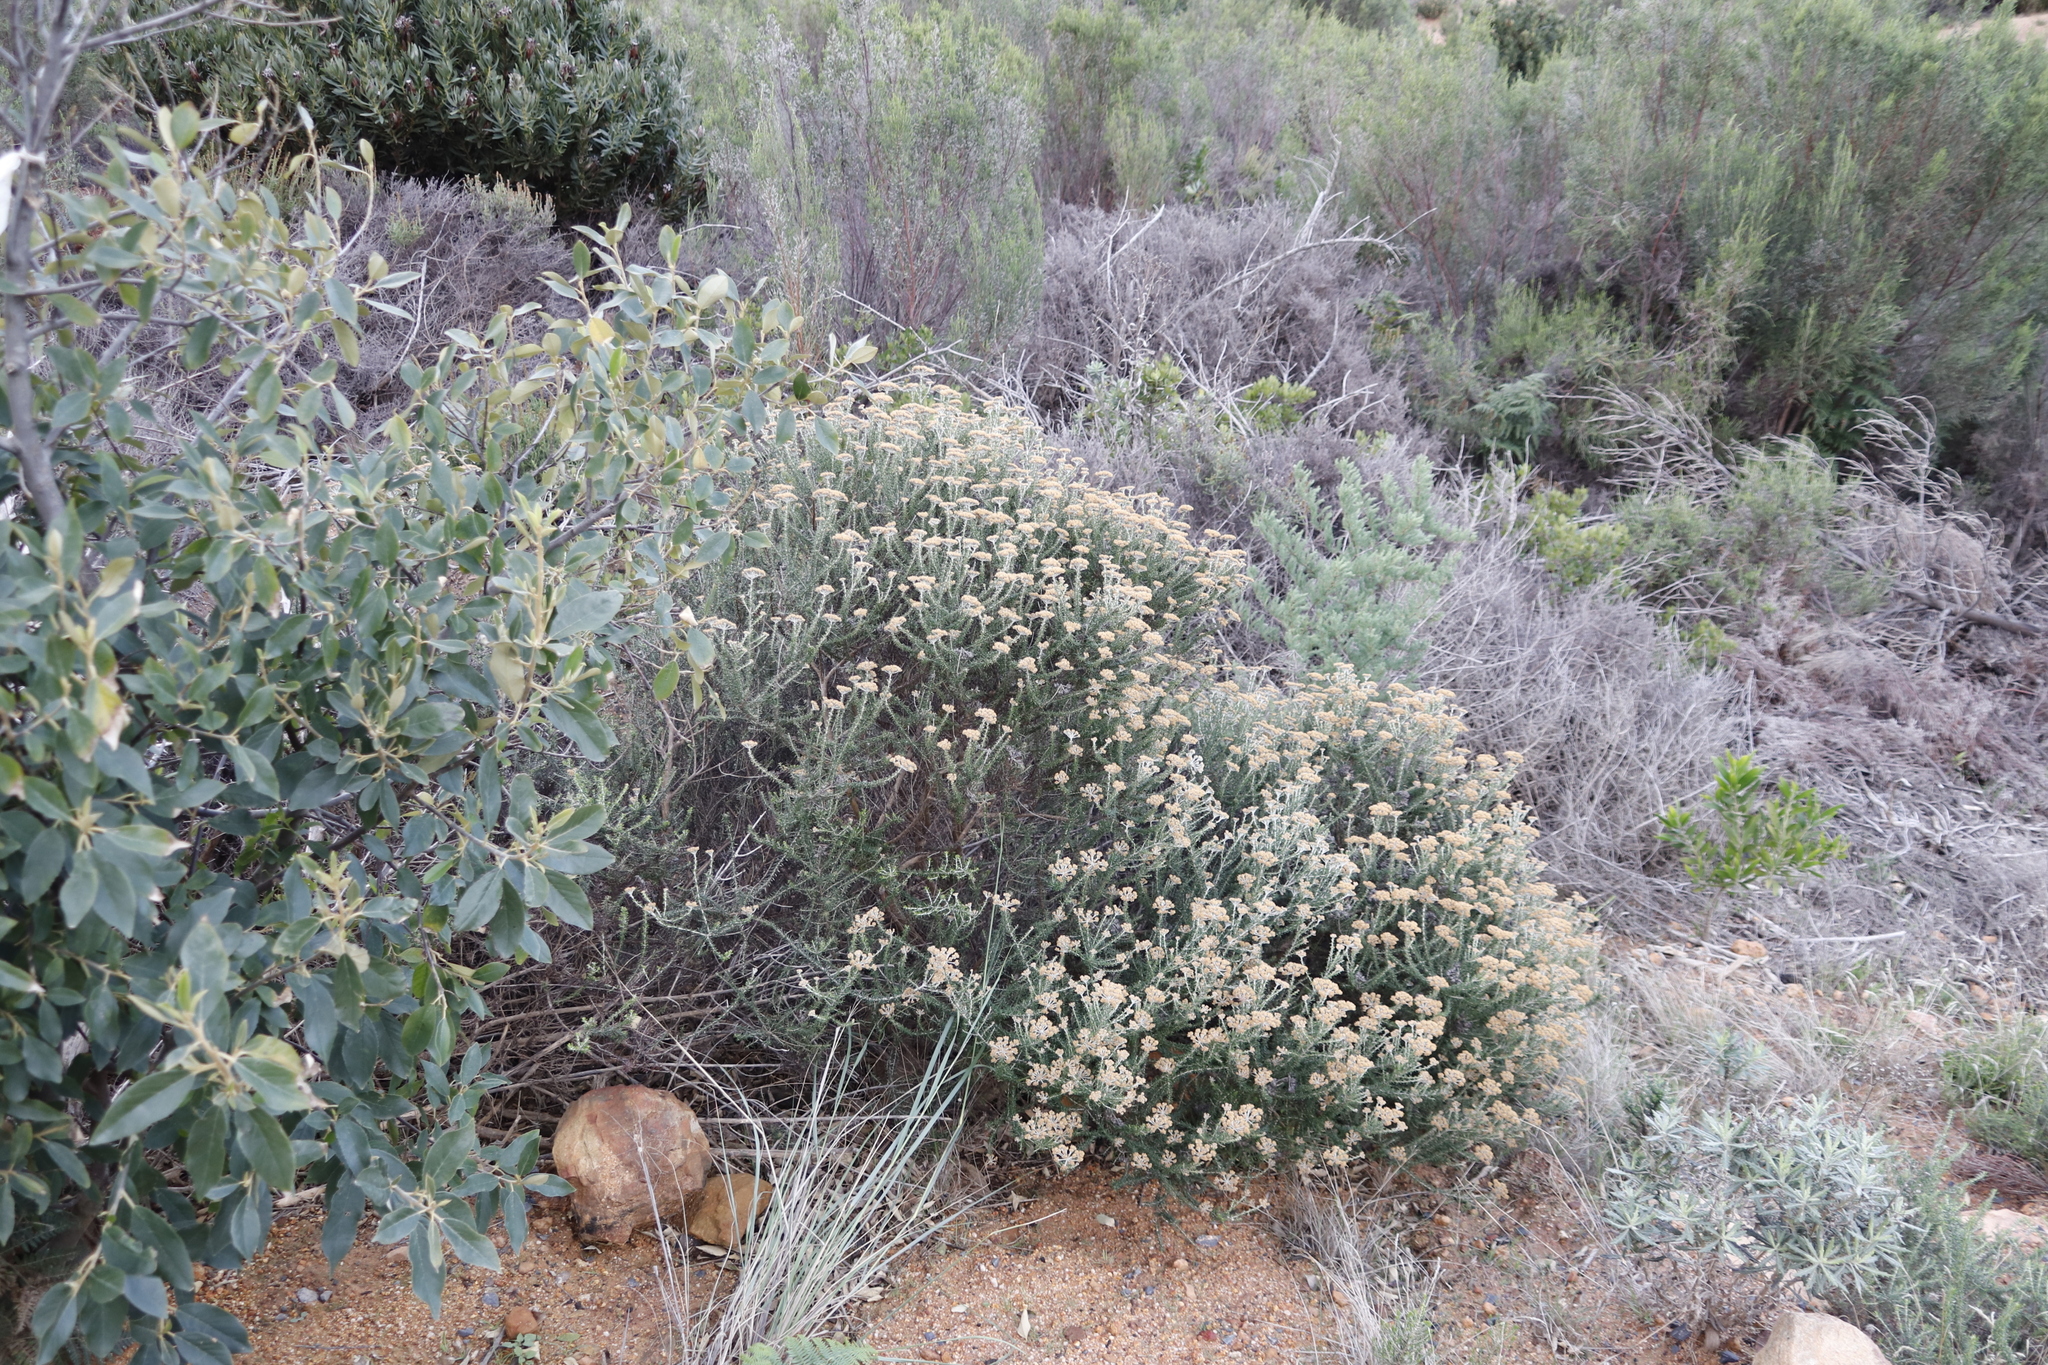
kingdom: Plantae
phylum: Tracheophyta
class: Magnoliopsida
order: Asterales
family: Asteraceae
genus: Metalasia
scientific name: Metalasia densa
